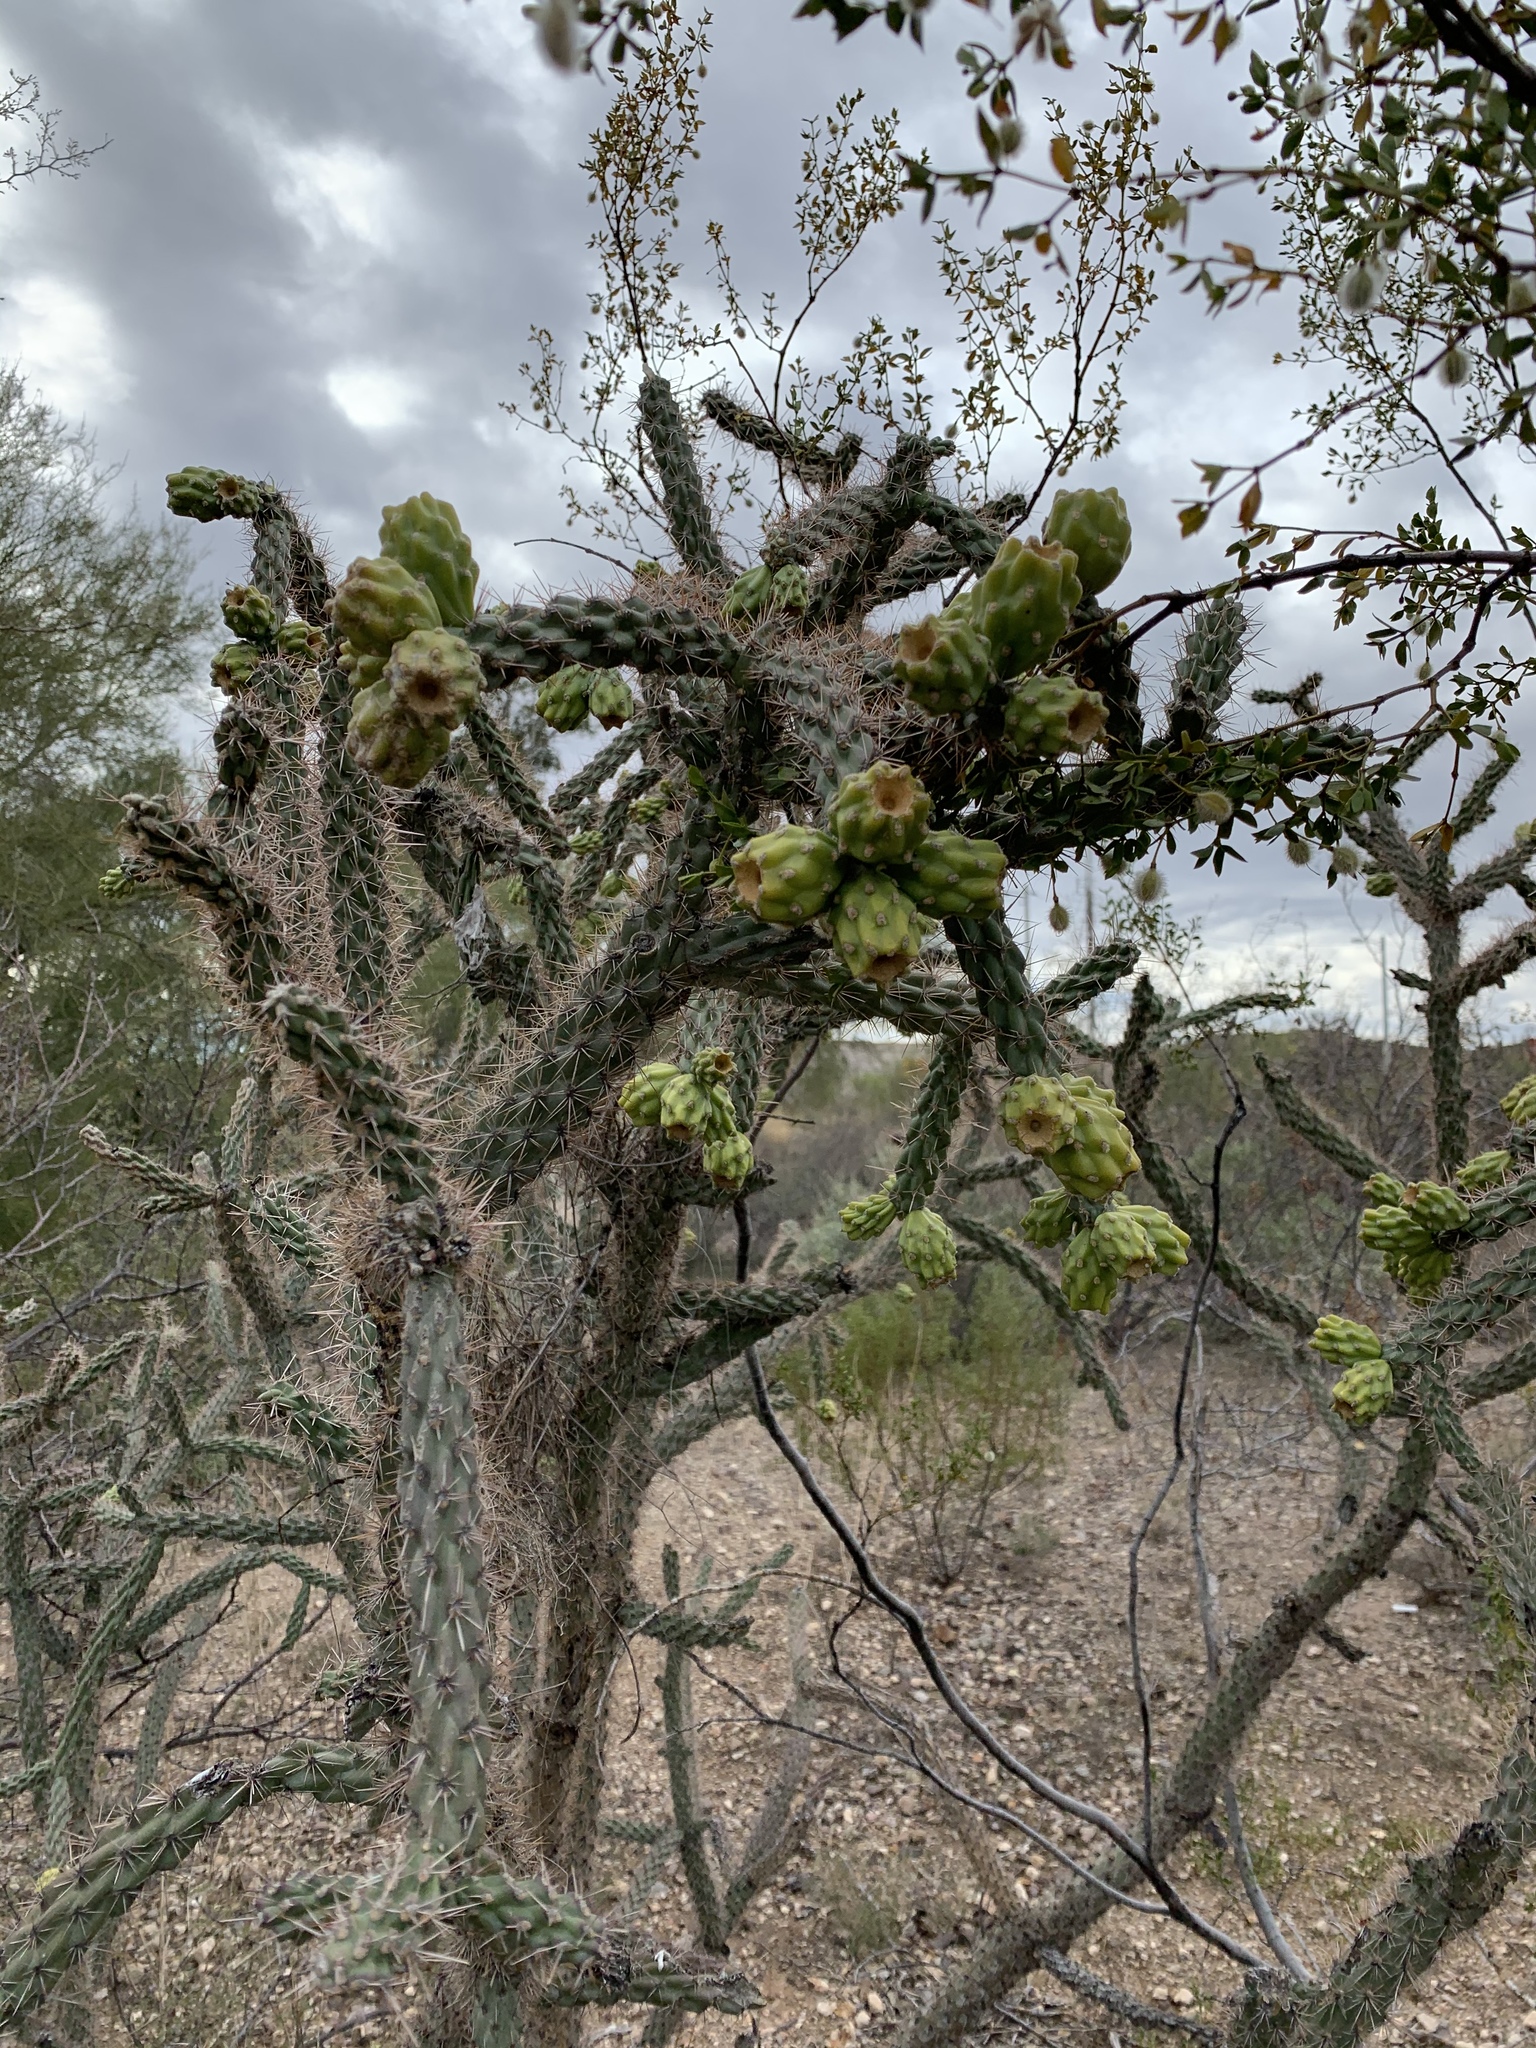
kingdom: Plantae
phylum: Tracheophyta
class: Magnoliopsida
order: Caryophyllales
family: Cactaceae
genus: Cylindropuntia
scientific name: Cylindropuntia imbricata
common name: Candelabrum cactus
